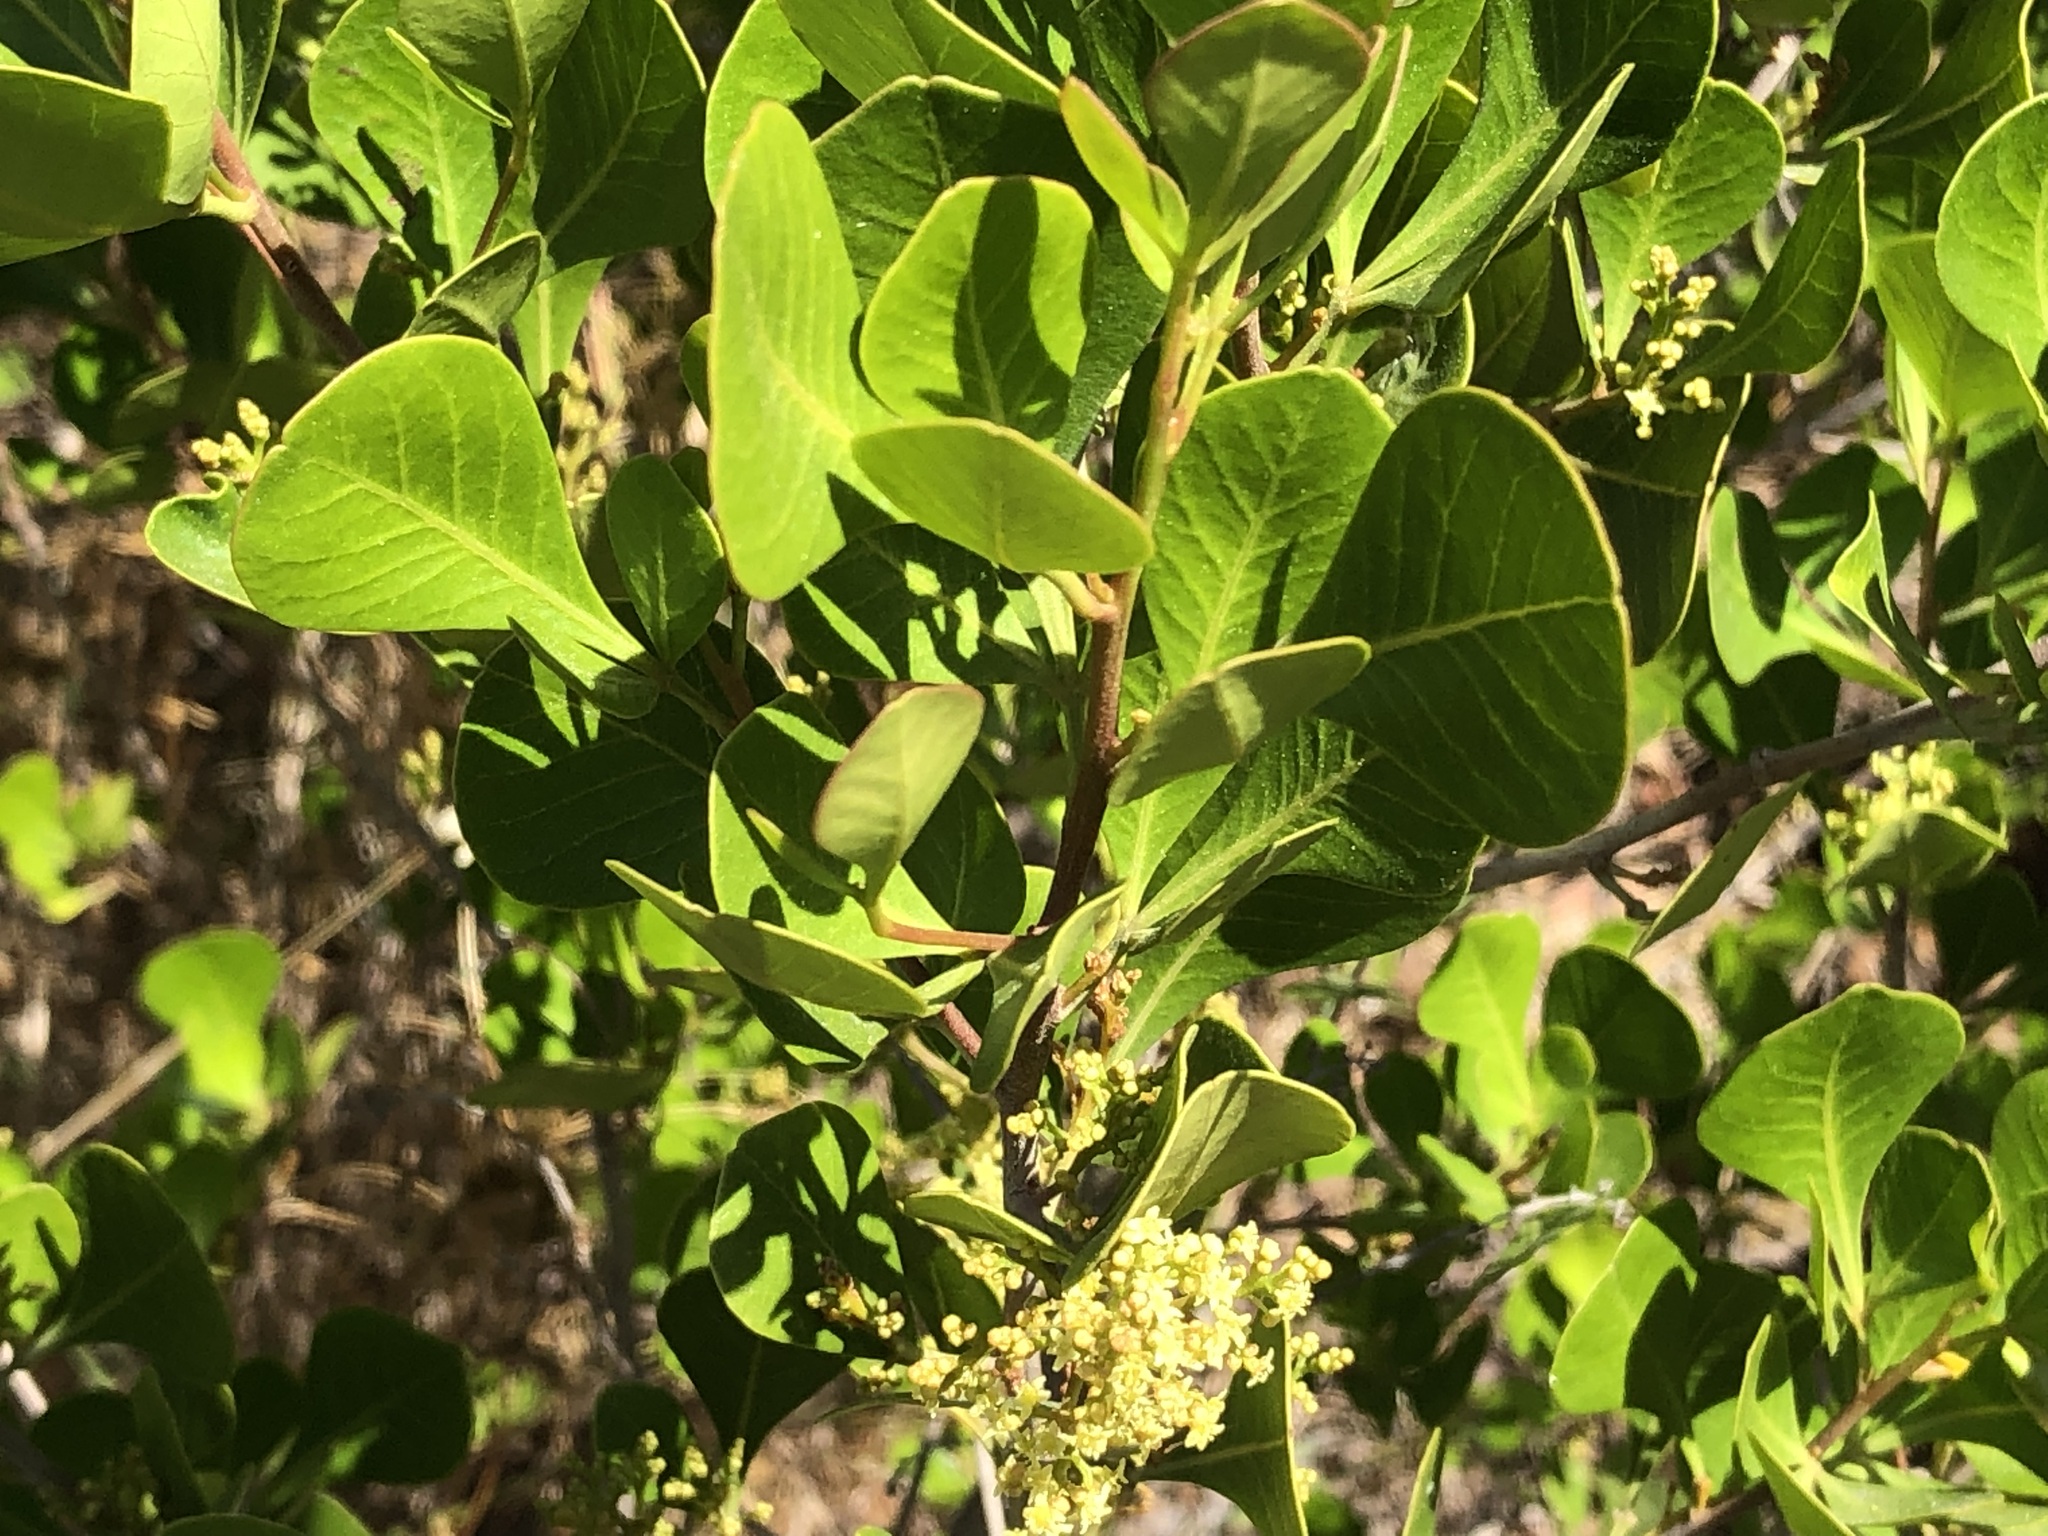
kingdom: Plantae
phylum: Tracheophyta
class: Magnoliopsida
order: Sapindales
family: Anacardiaceae
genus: Searsia
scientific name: Searsia lucida
